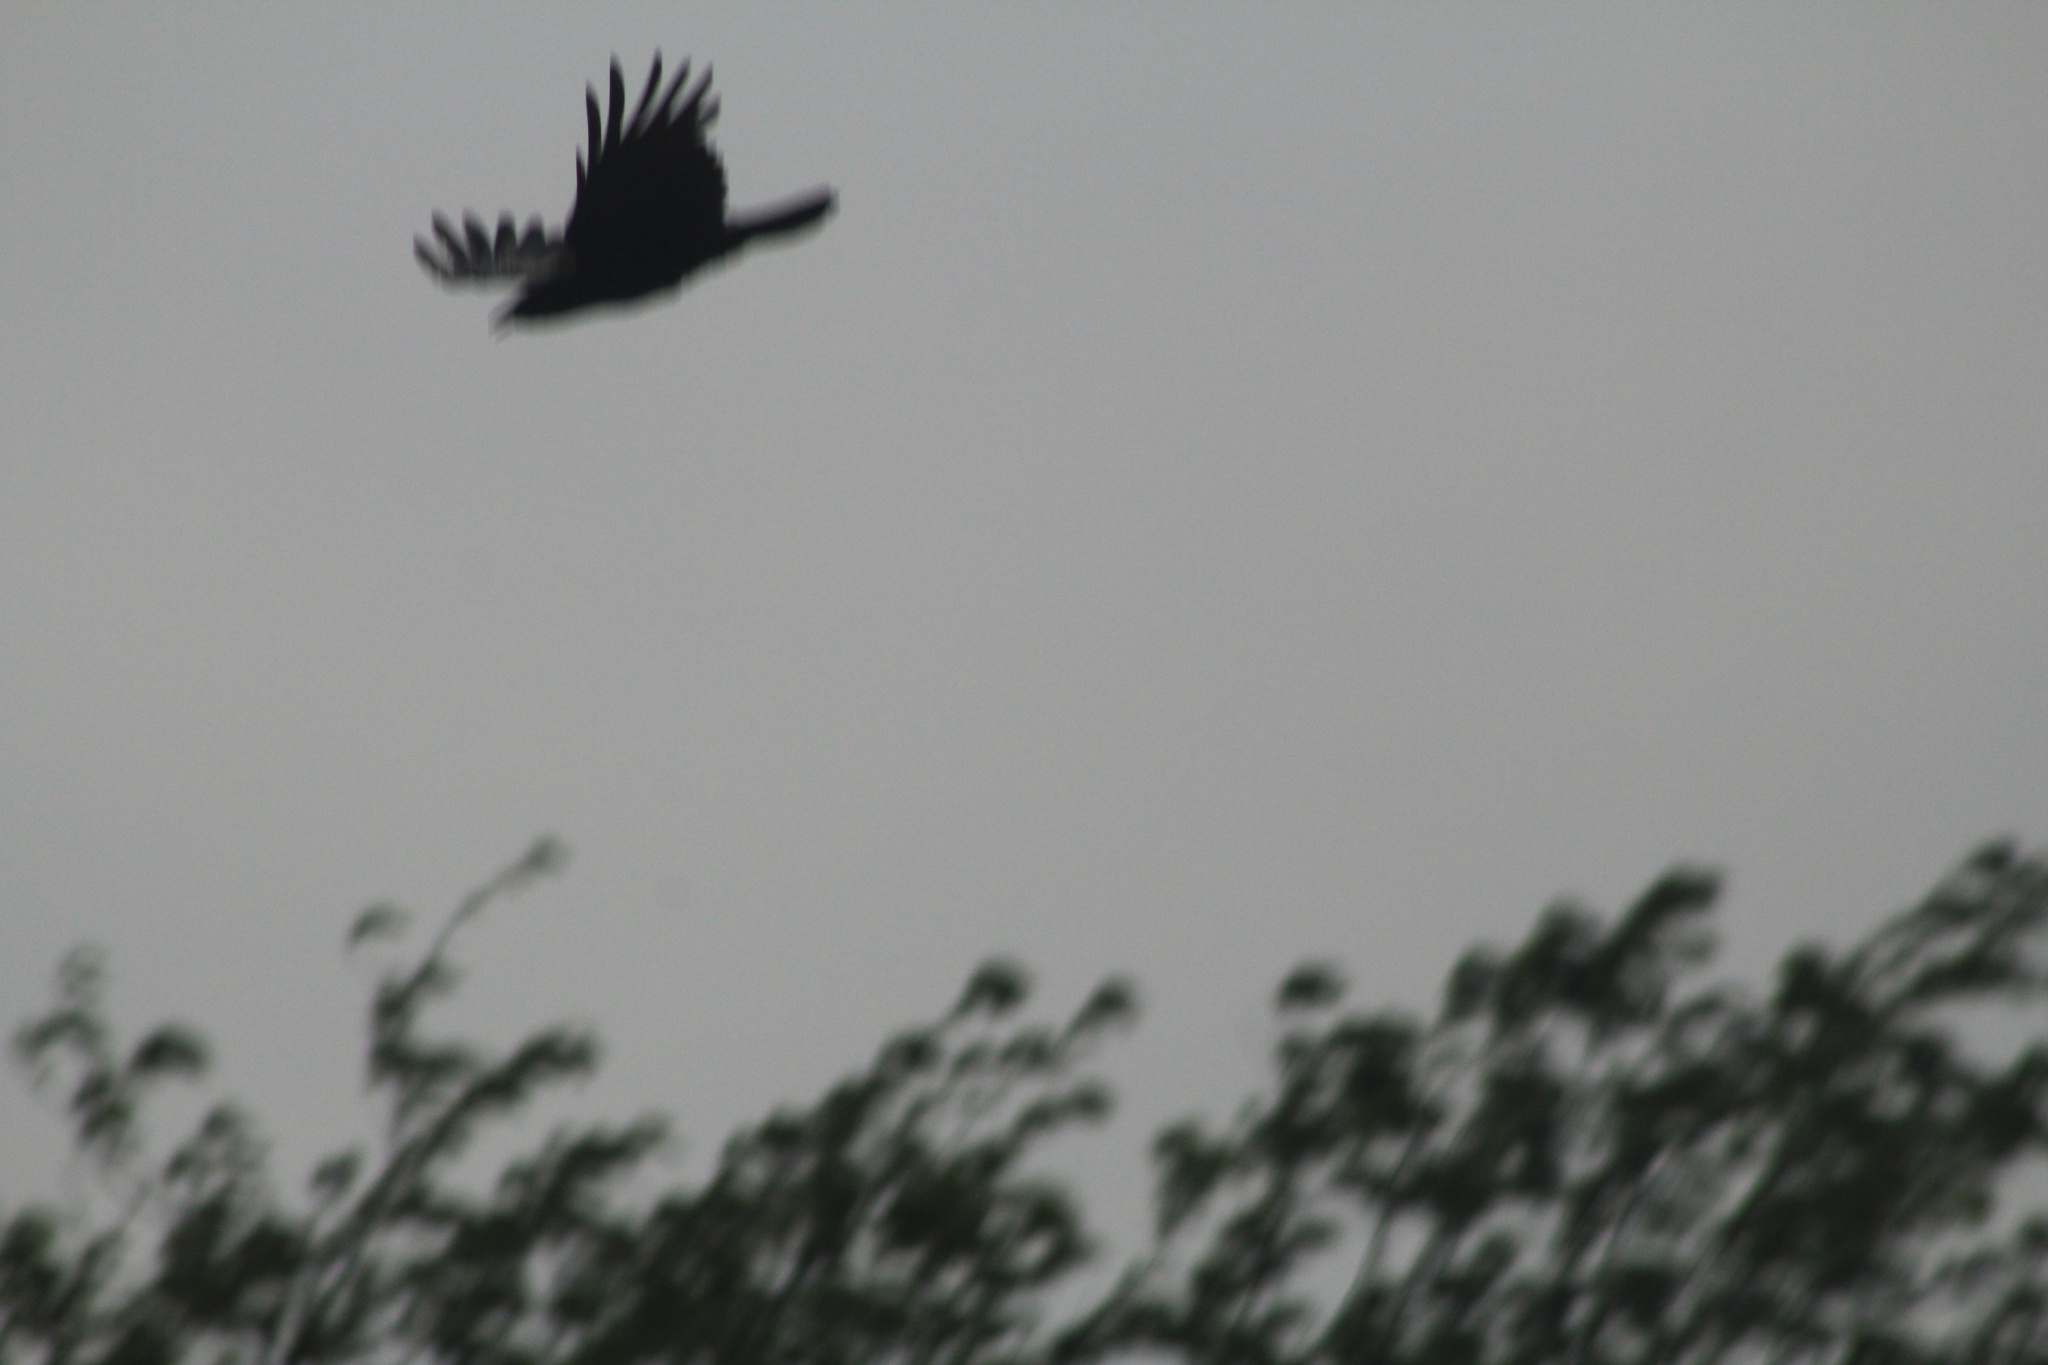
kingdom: Animalia
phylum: Chordata
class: Aves
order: Passeriformes
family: Corvidae
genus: Corvus
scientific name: Corvus brachyrhynchos
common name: American crow
